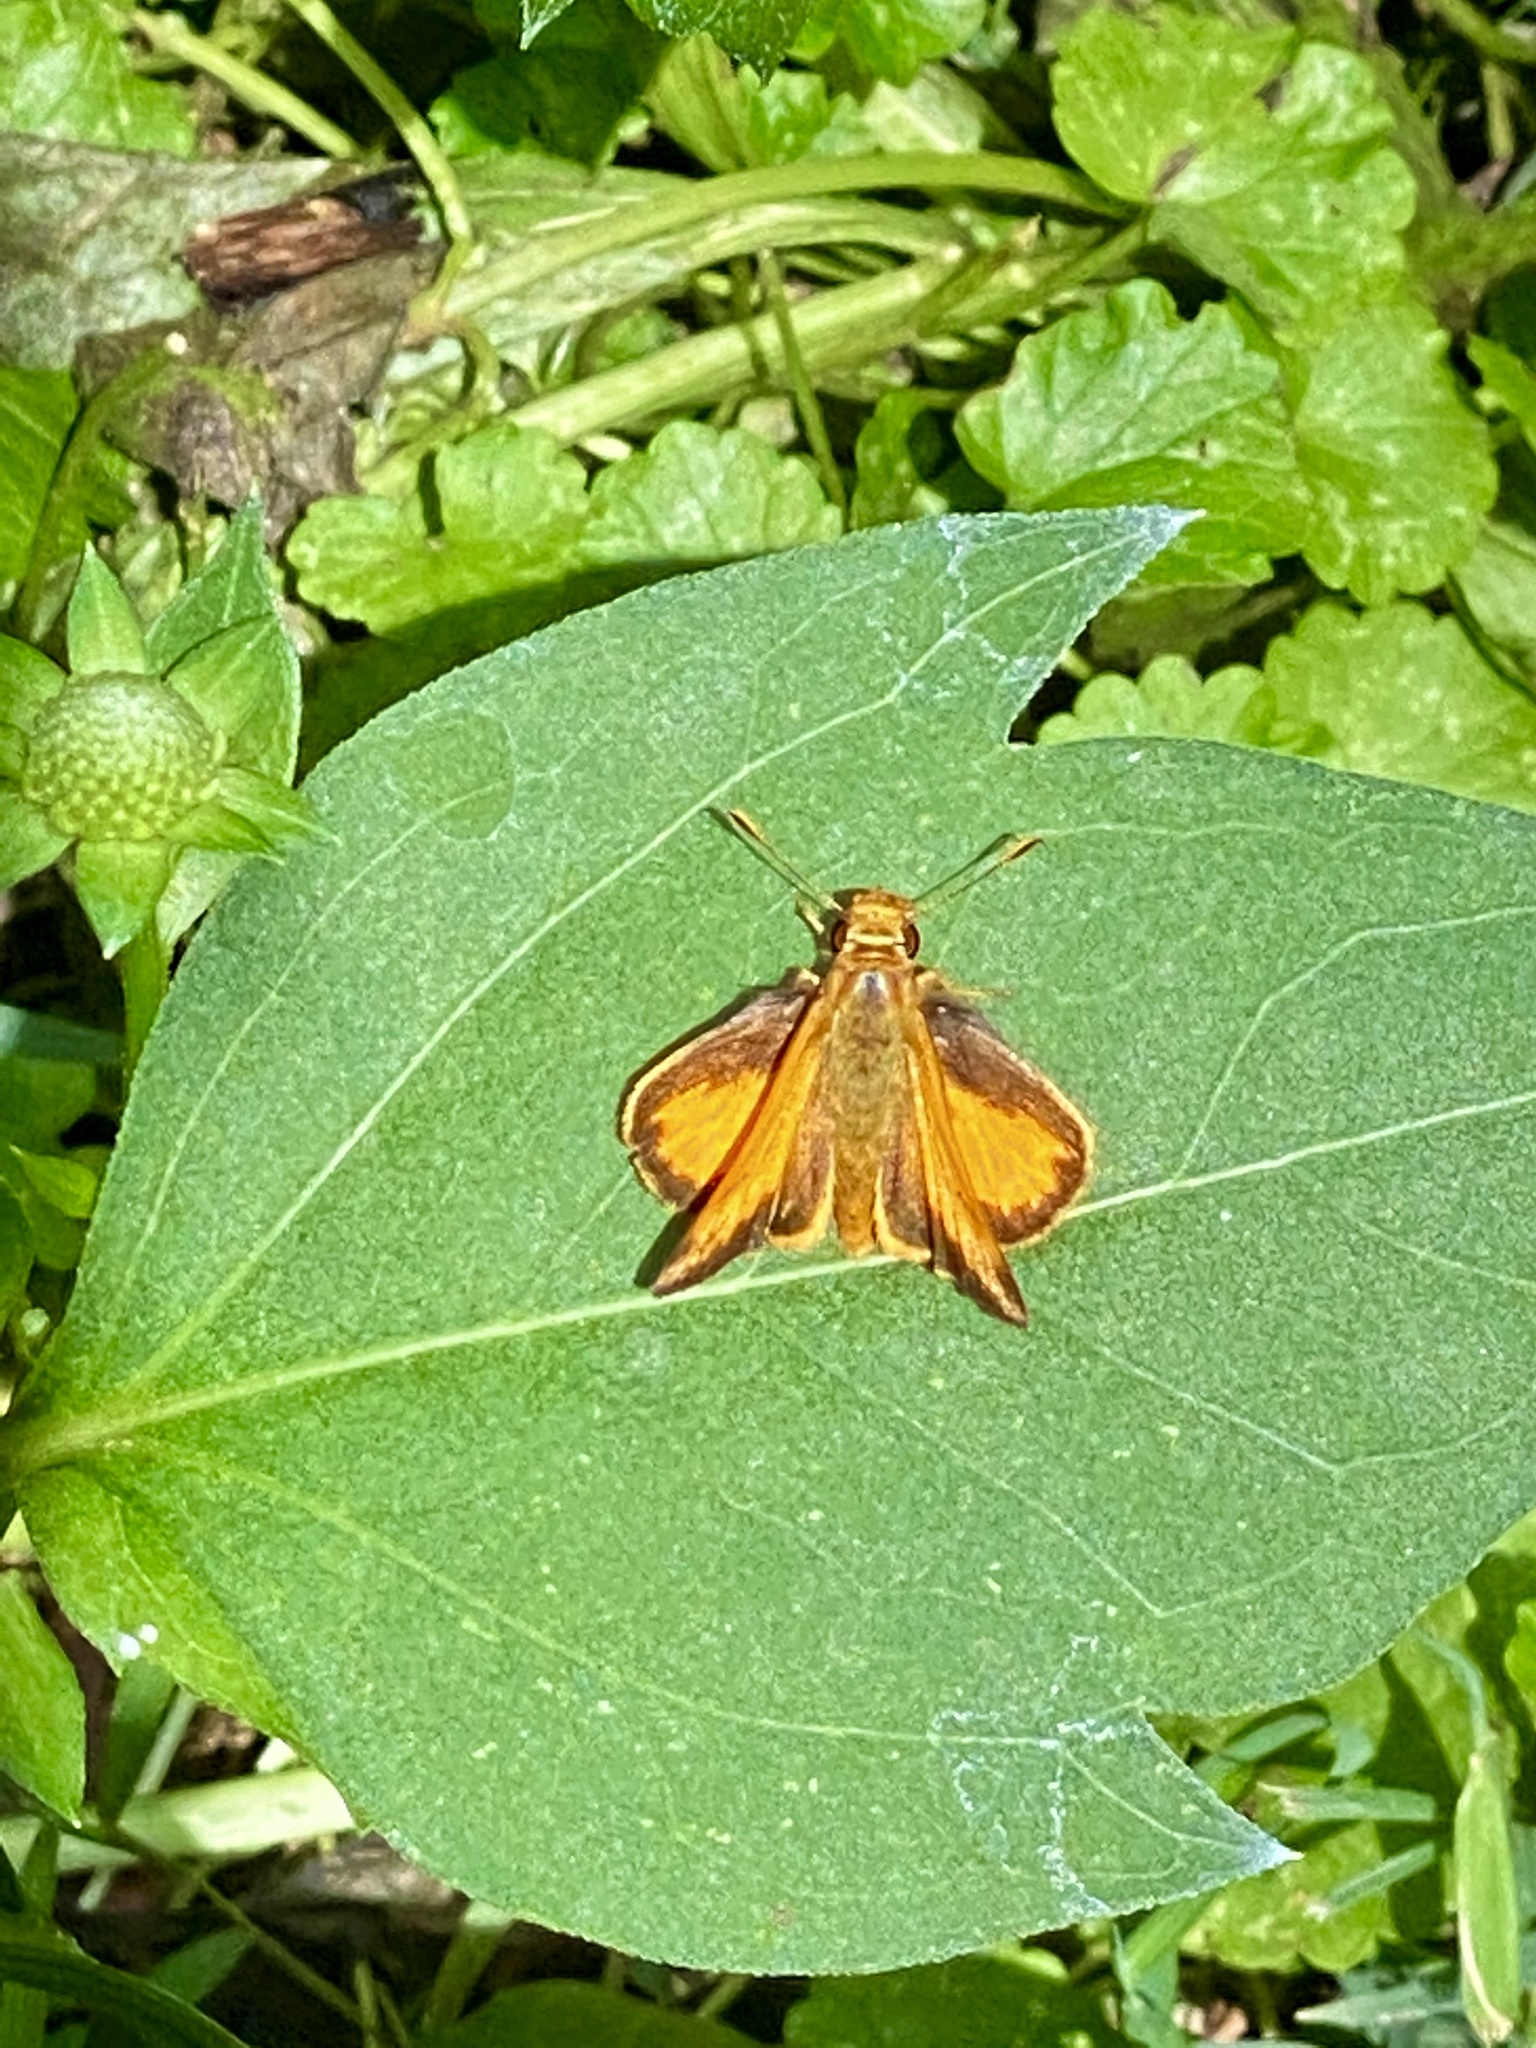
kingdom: Animalia
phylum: Arthropoda
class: Insecta
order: Lepidoptera
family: Hesperiidae
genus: Lon
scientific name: Lon zabulon
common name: Zabulon skipper
